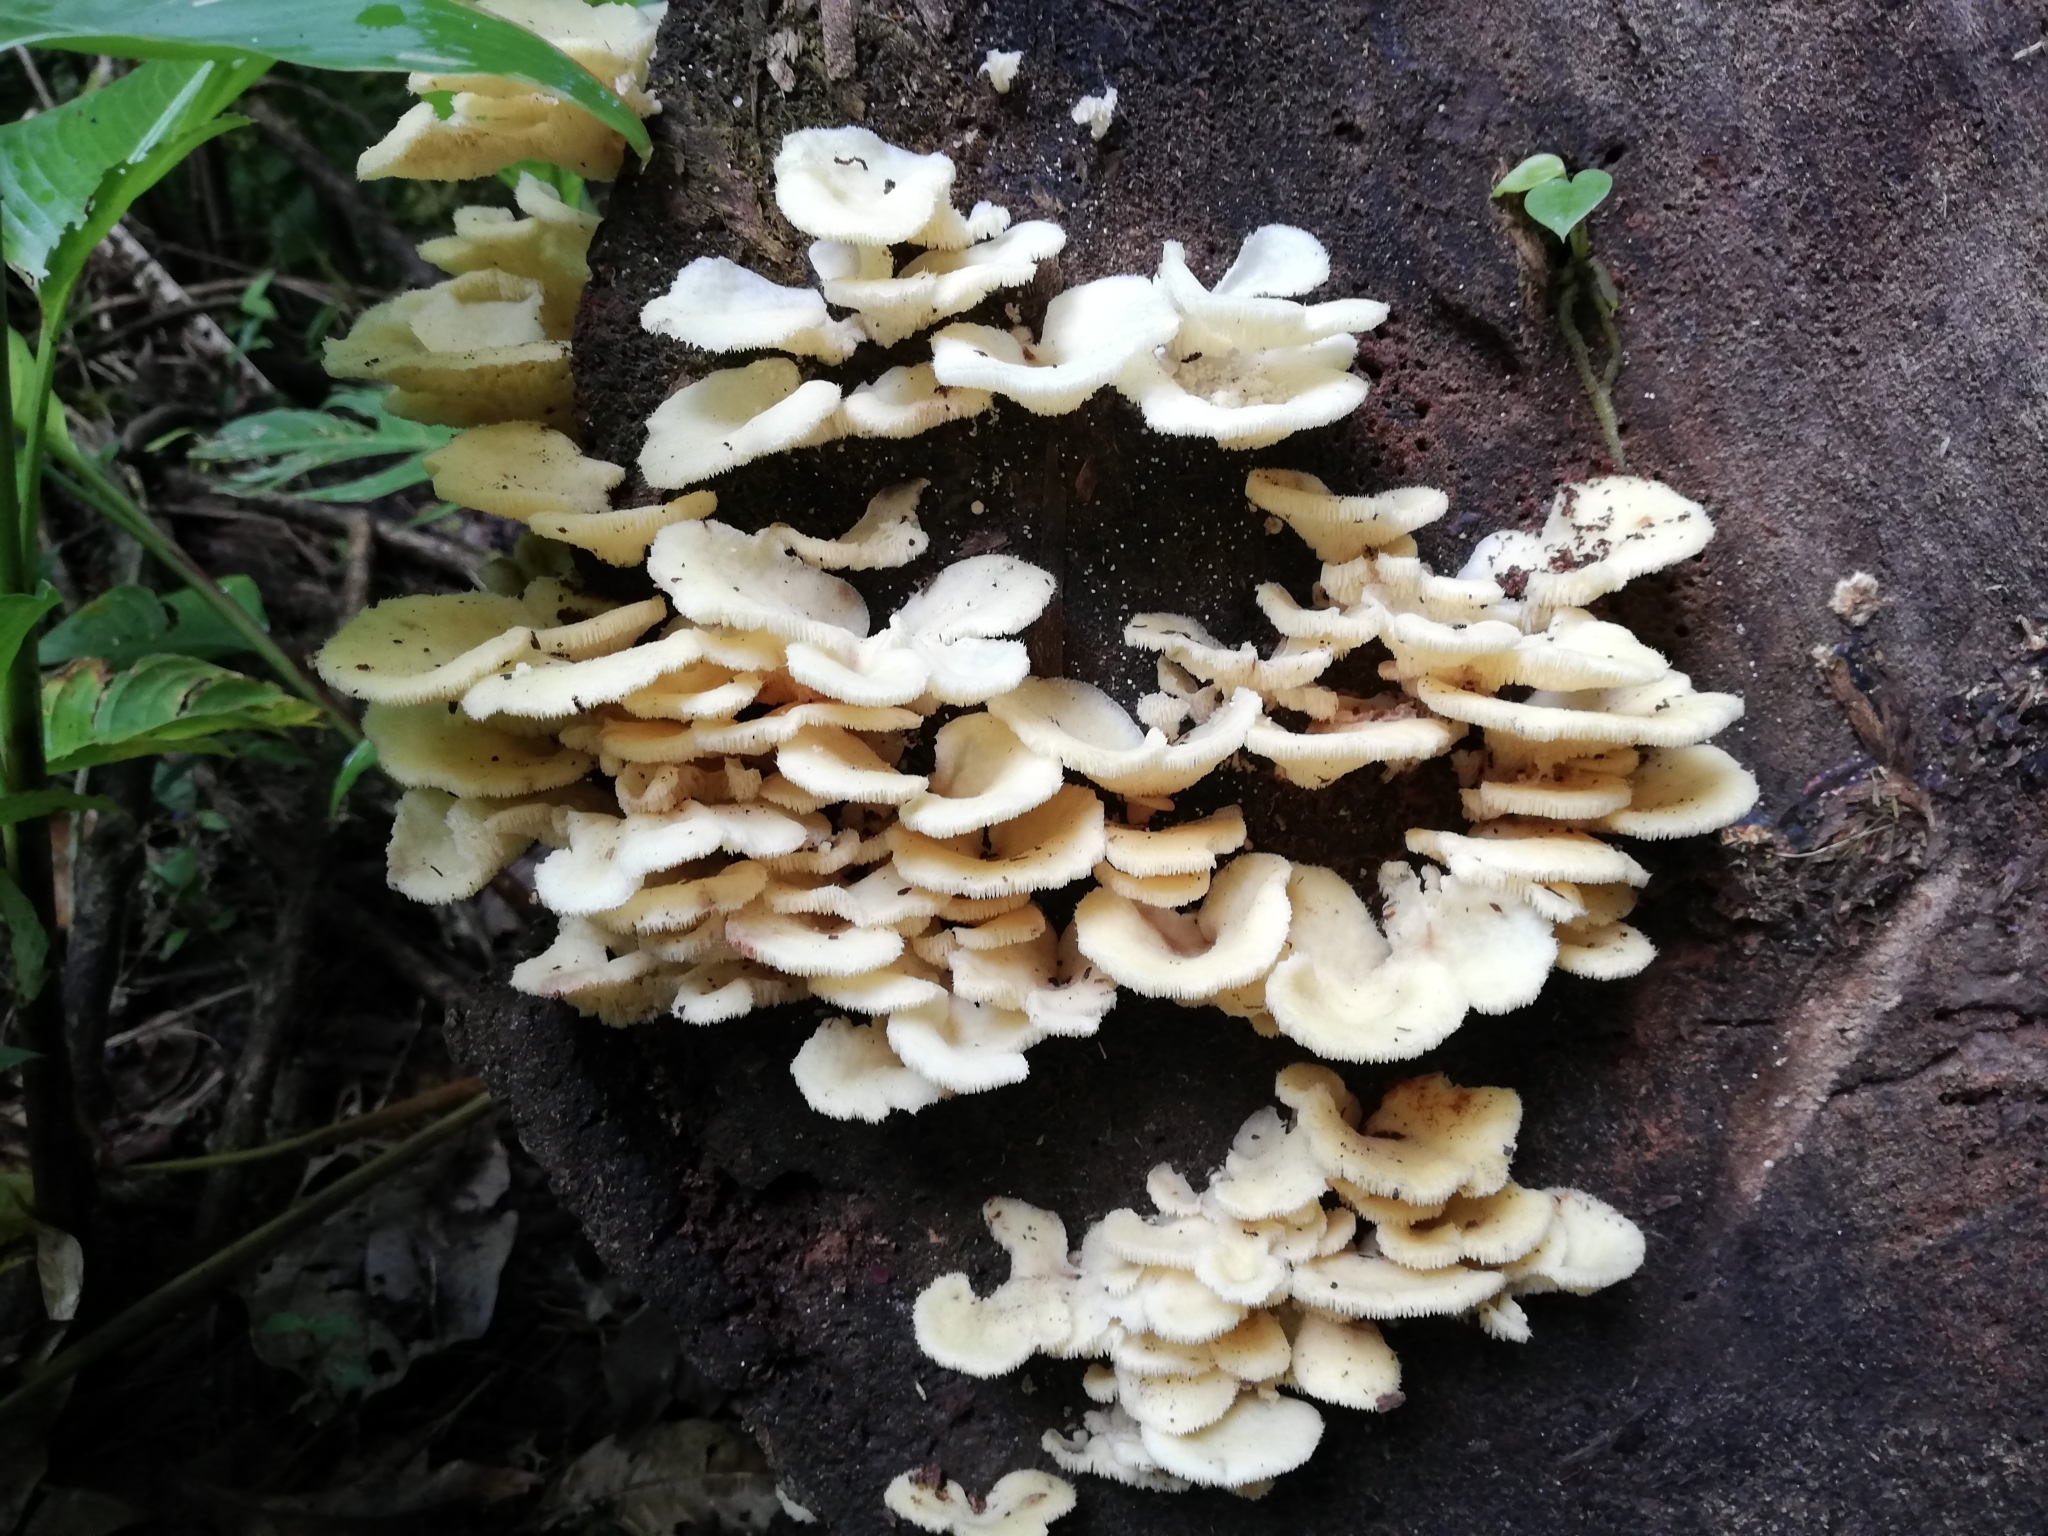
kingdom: Fungi
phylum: Basidiomycota
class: Agaricomycetes
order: Polyporales
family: Polyporaceae
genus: Favolus
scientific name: Favolus tenuiculus
